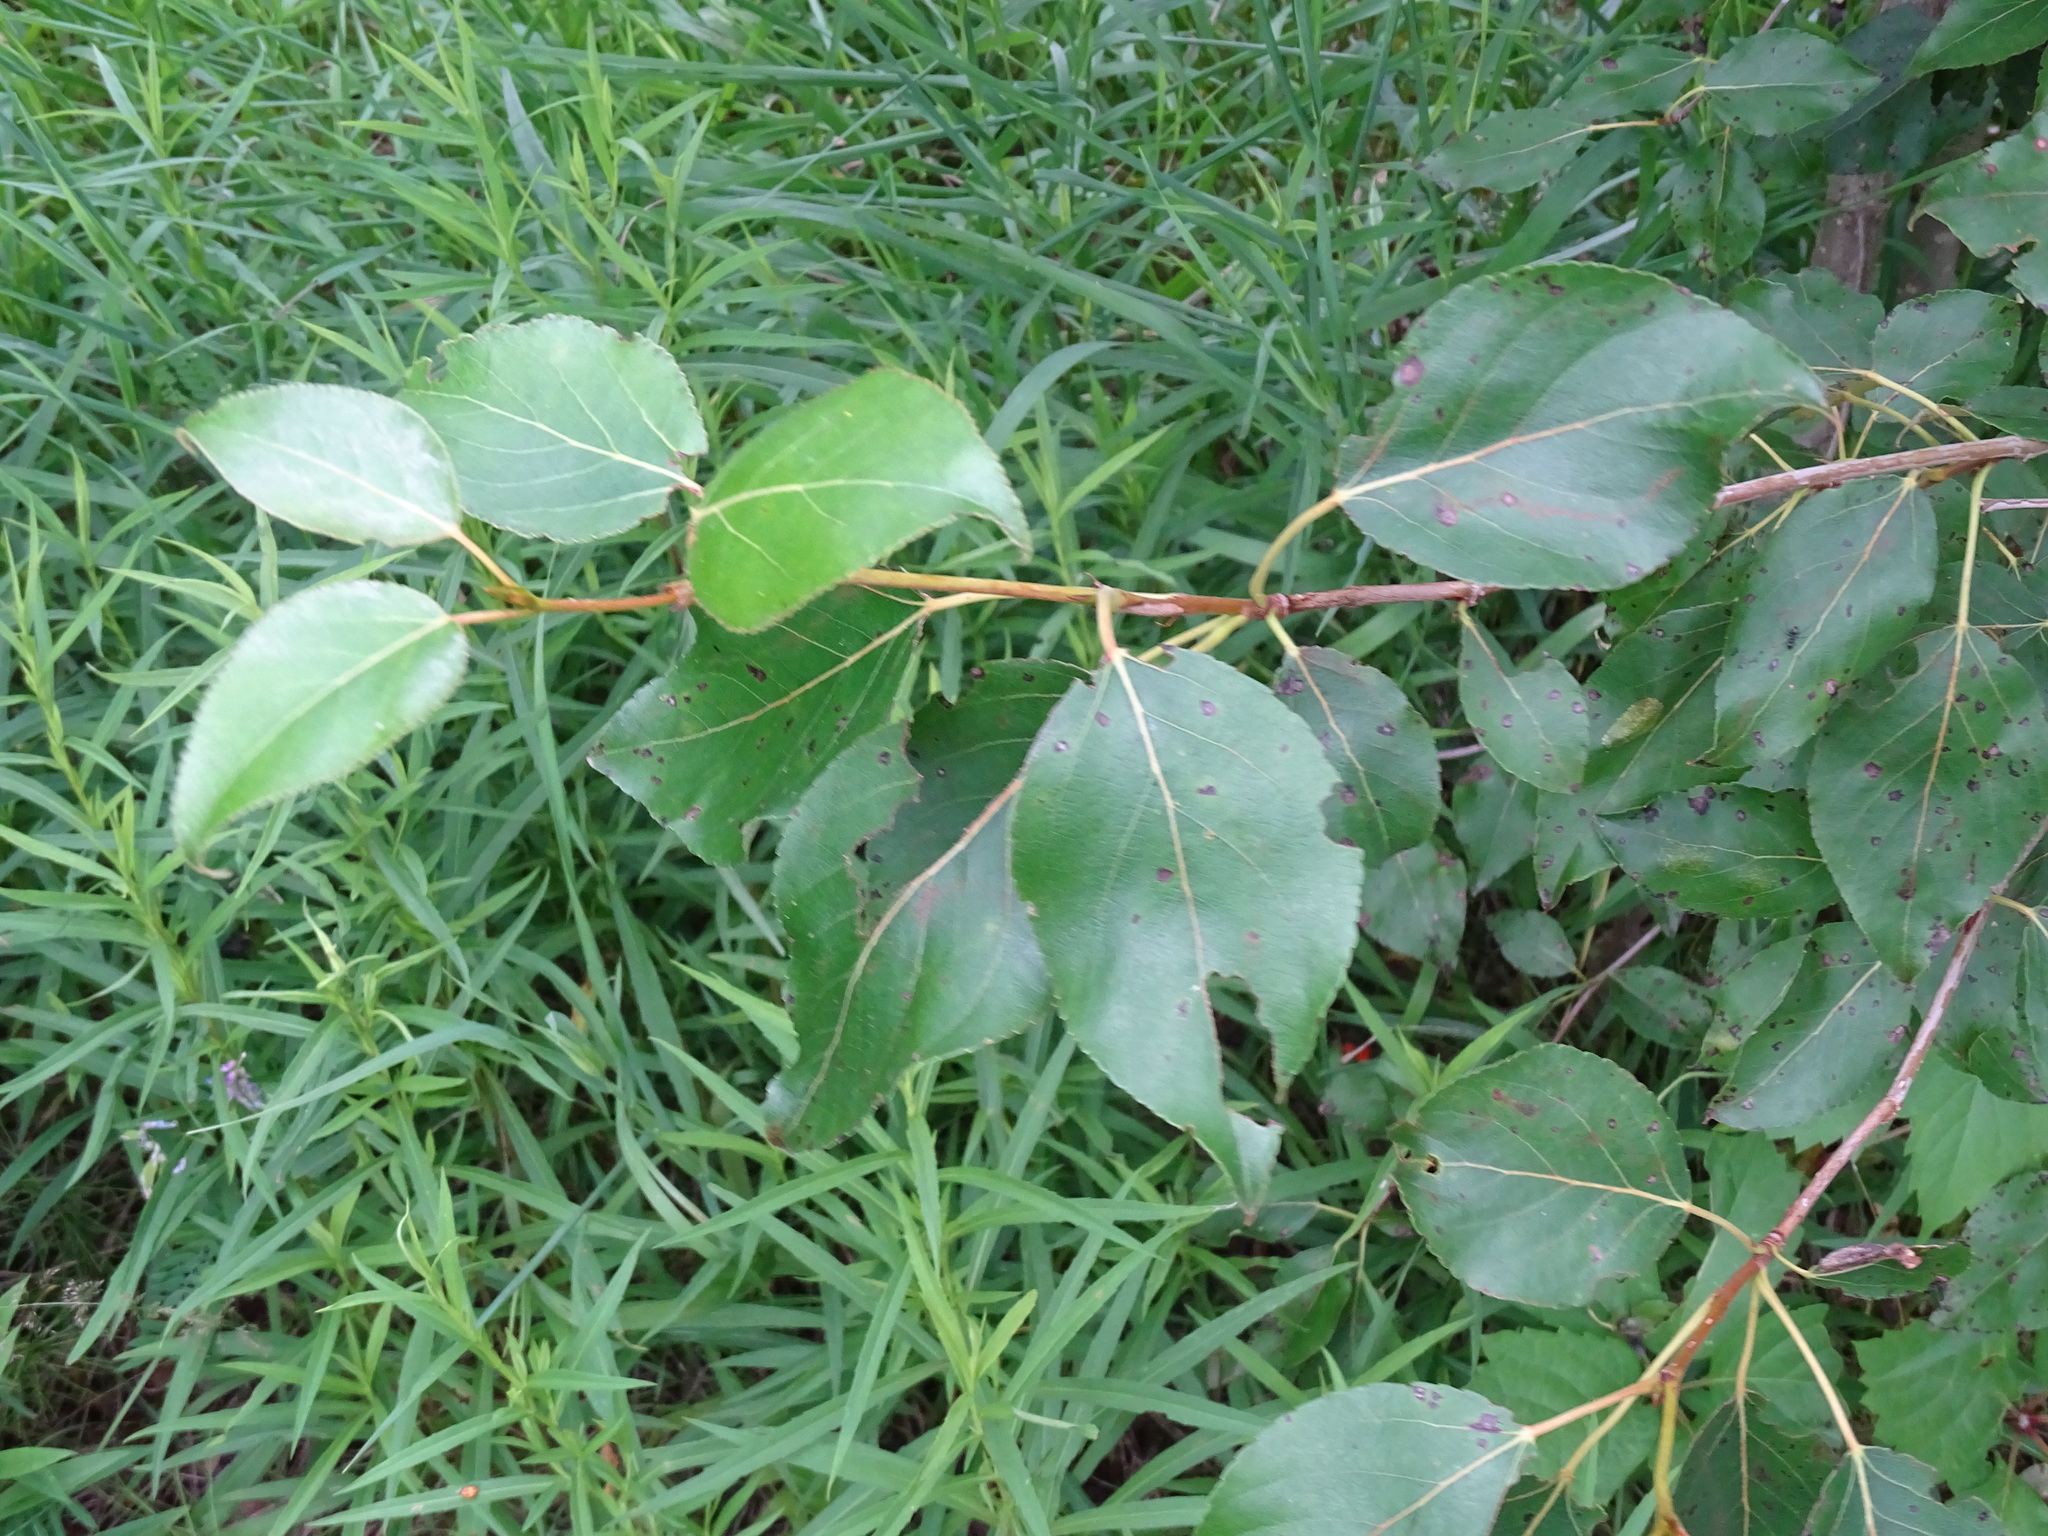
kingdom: Plantae
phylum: Tracheophyta
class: Magnoliopsida
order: Malpighiales
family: Salicaceae
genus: Populus
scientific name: Populus balsamifera
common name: Balsam poplar
